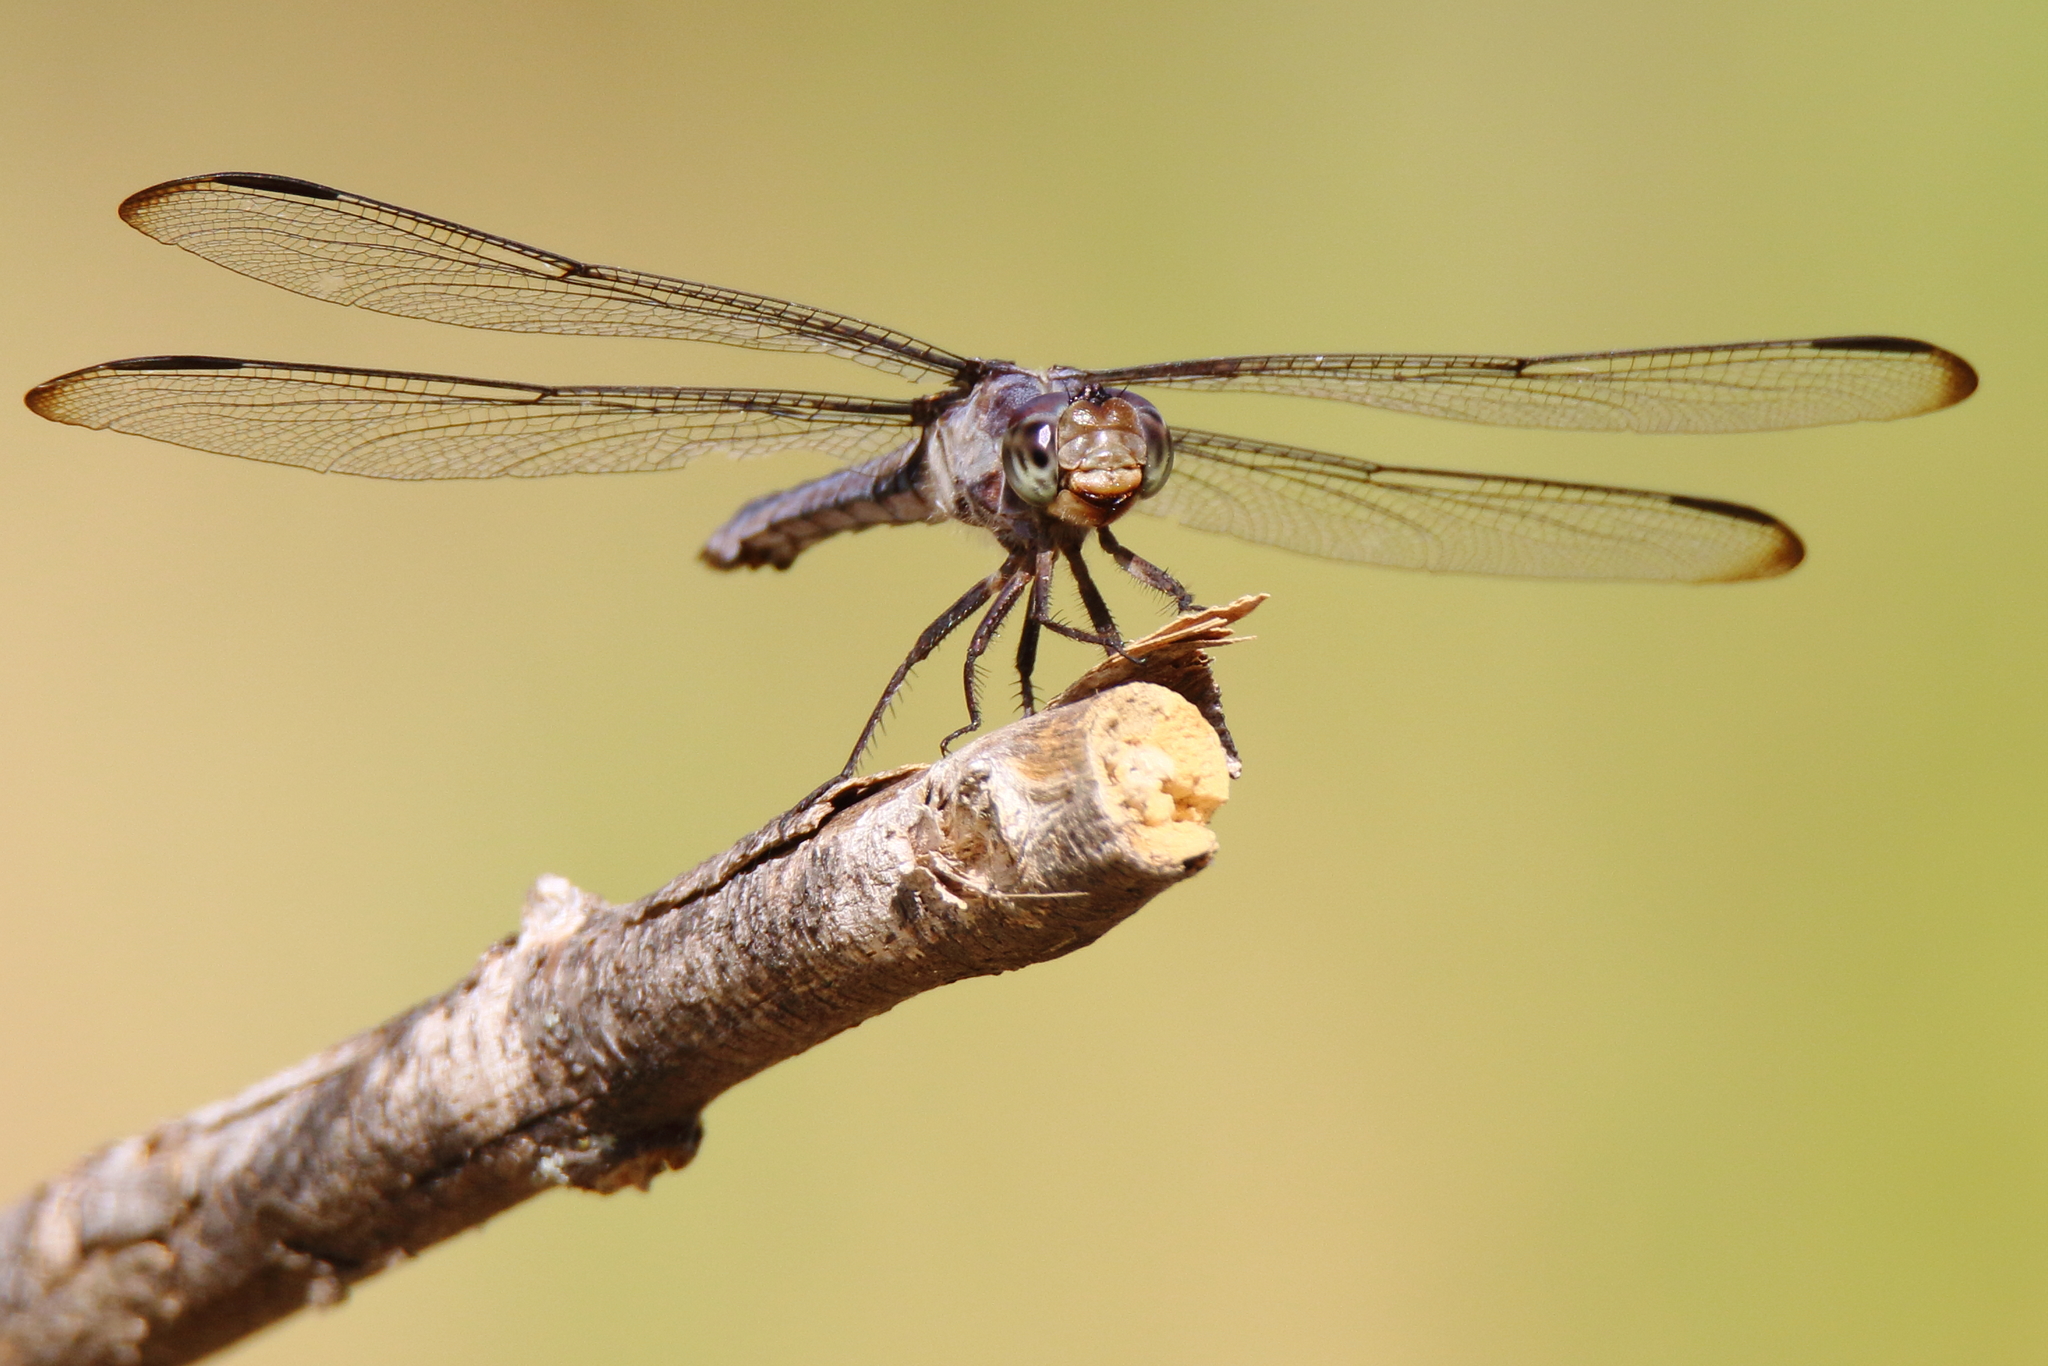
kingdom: Animalia
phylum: Arthropoda
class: Insecta
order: Odonata
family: Libellulidae
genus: Libellula
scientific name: Libellula incesta
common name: Slaty skimmer
